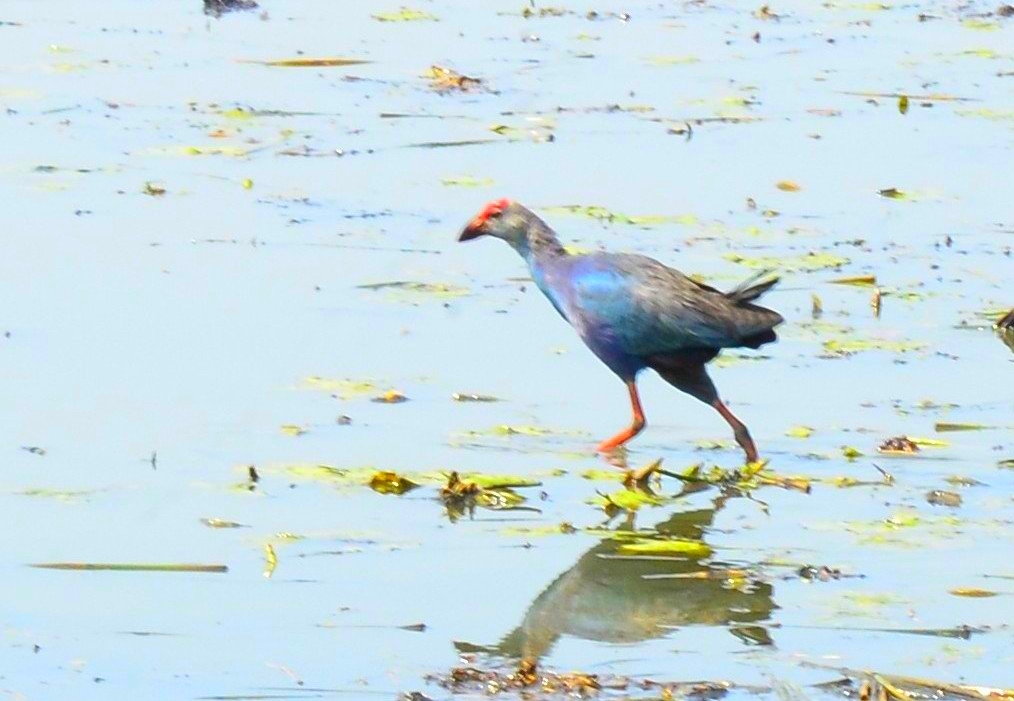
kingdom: Animalia
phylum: Chordata
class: Aves
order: Gruiformes
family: Rallidae
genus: Porphyrio
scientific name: Porphyrio porphyrio
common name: Purple swamphen
